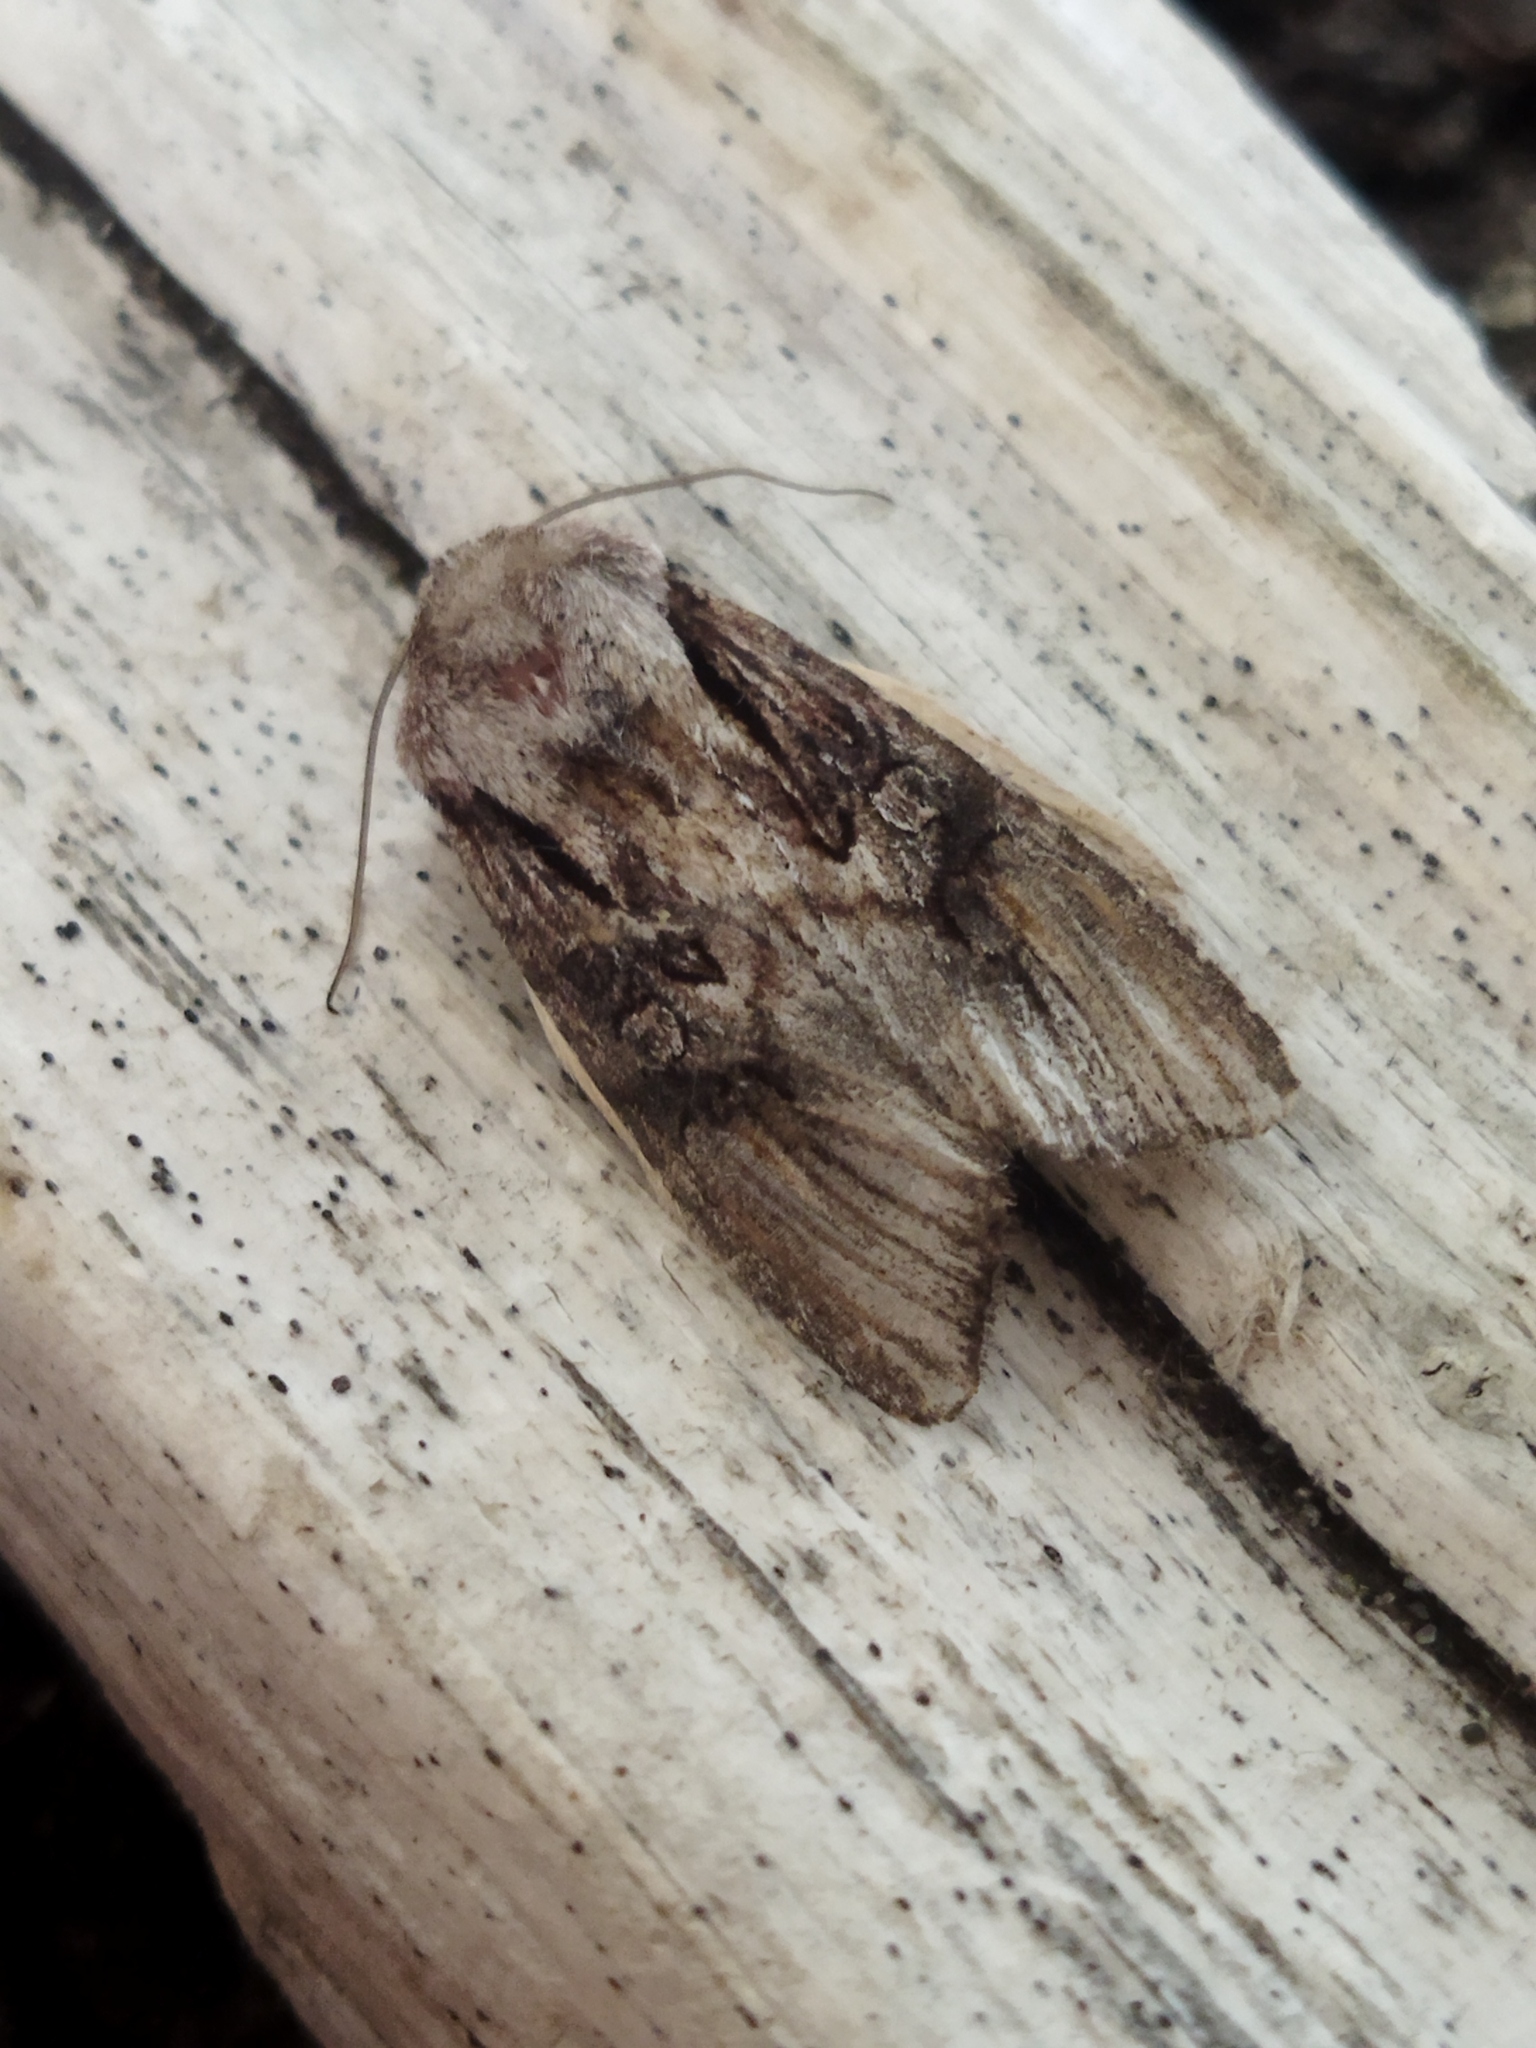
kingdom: Animalia
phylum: Arthropoda
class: Insecta
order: Lepidoptera
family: Noctuidae
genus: Egira
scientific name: Egira
